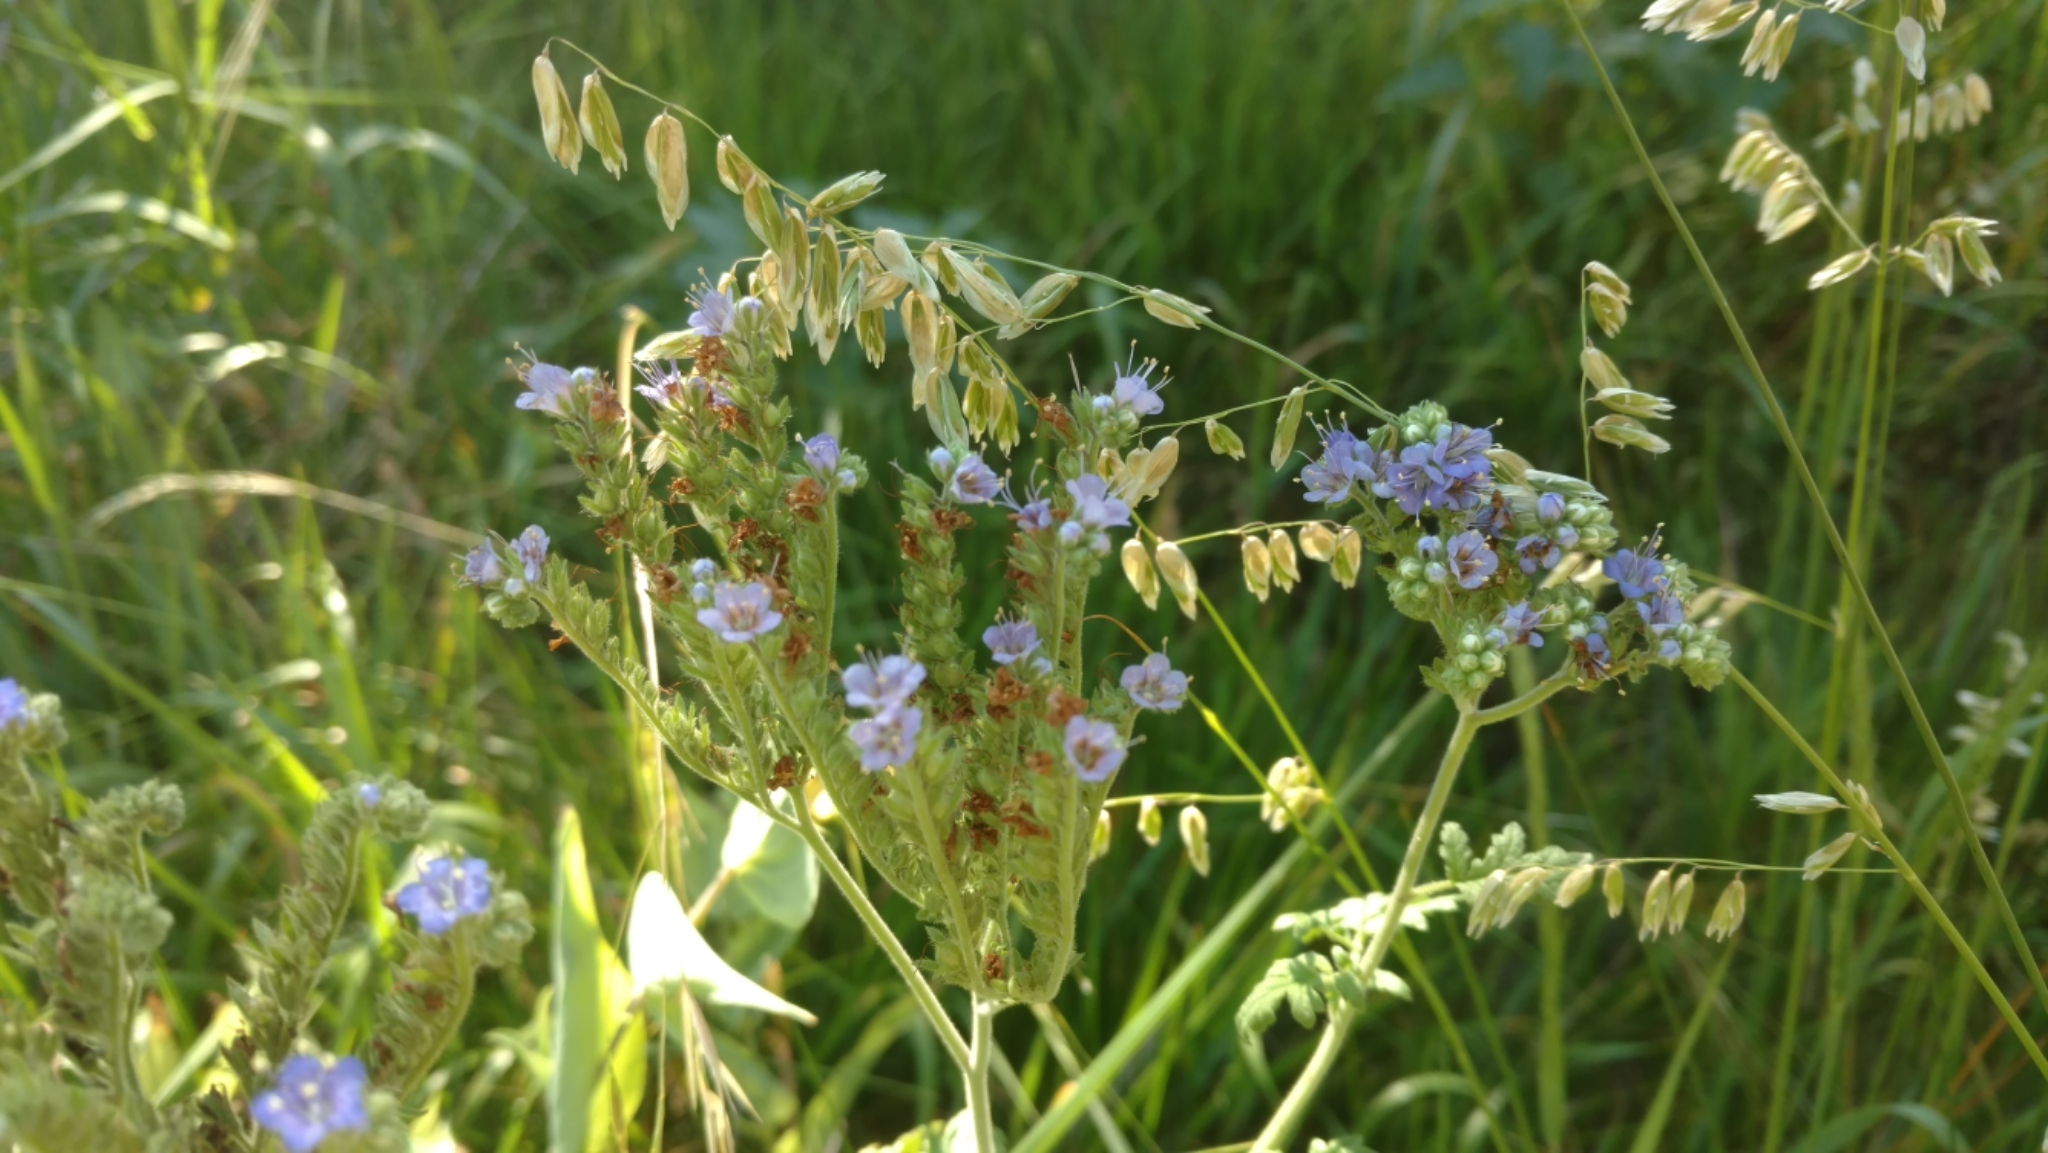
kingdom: Plantae
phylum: Tracheophyta
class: Magnoliopsida
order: Boraginales
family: Hydrophyllaceae
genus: Phacelia
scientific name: Phacelia congesta
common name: Blue curls
